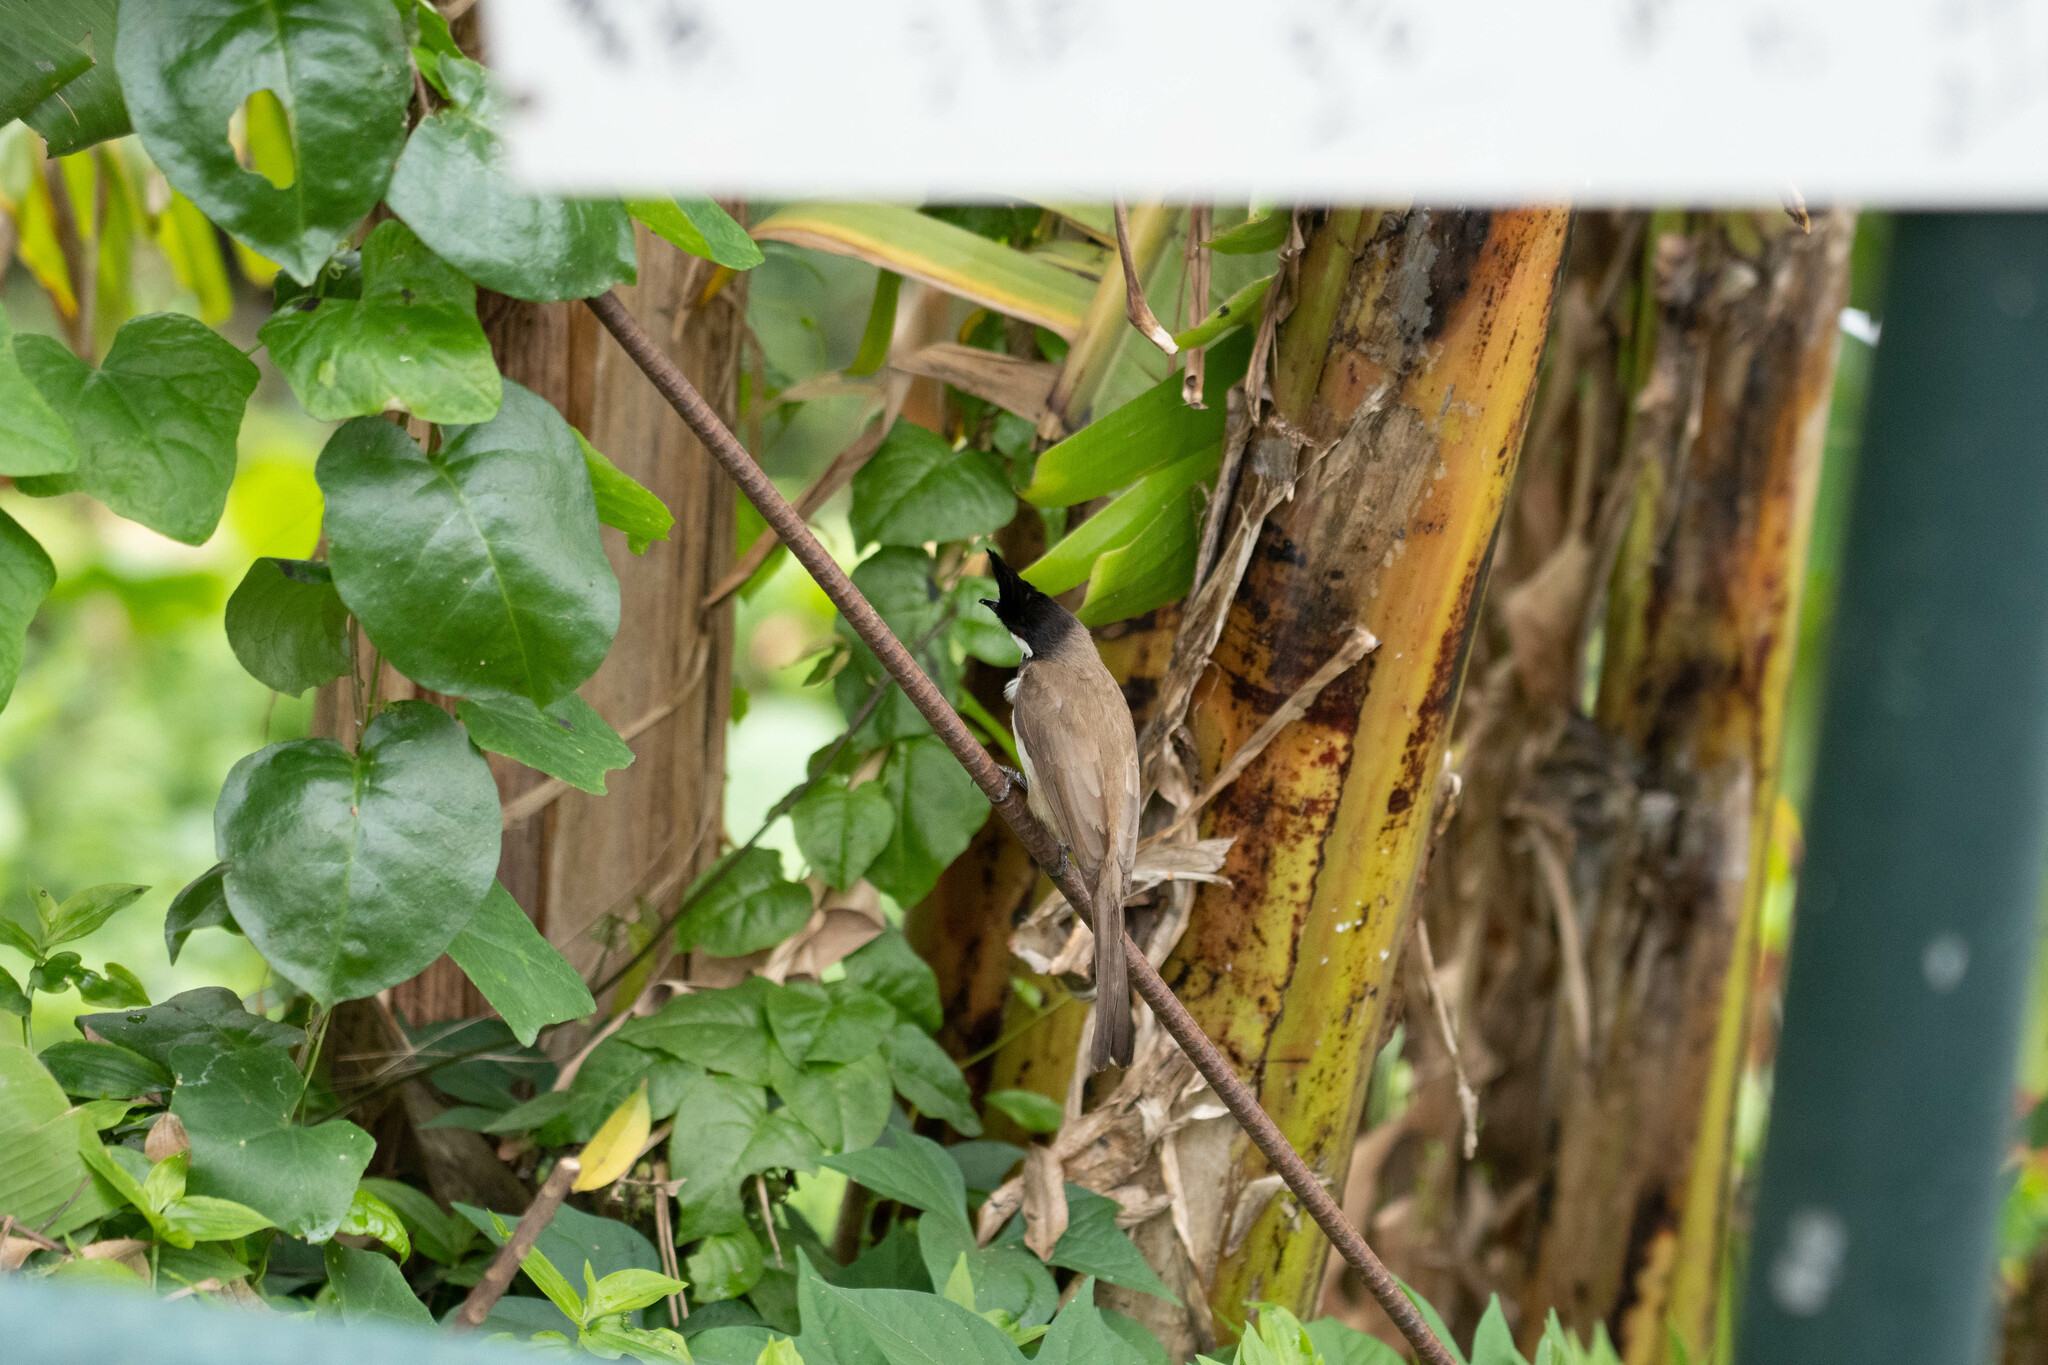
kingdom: Animalia
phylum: Chordata
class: Aves
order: Passeriformes
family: Pycnonotidae
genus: Pycnonotus
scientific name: Pycnonotus jocosus
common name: Red-whiskered bulbul
